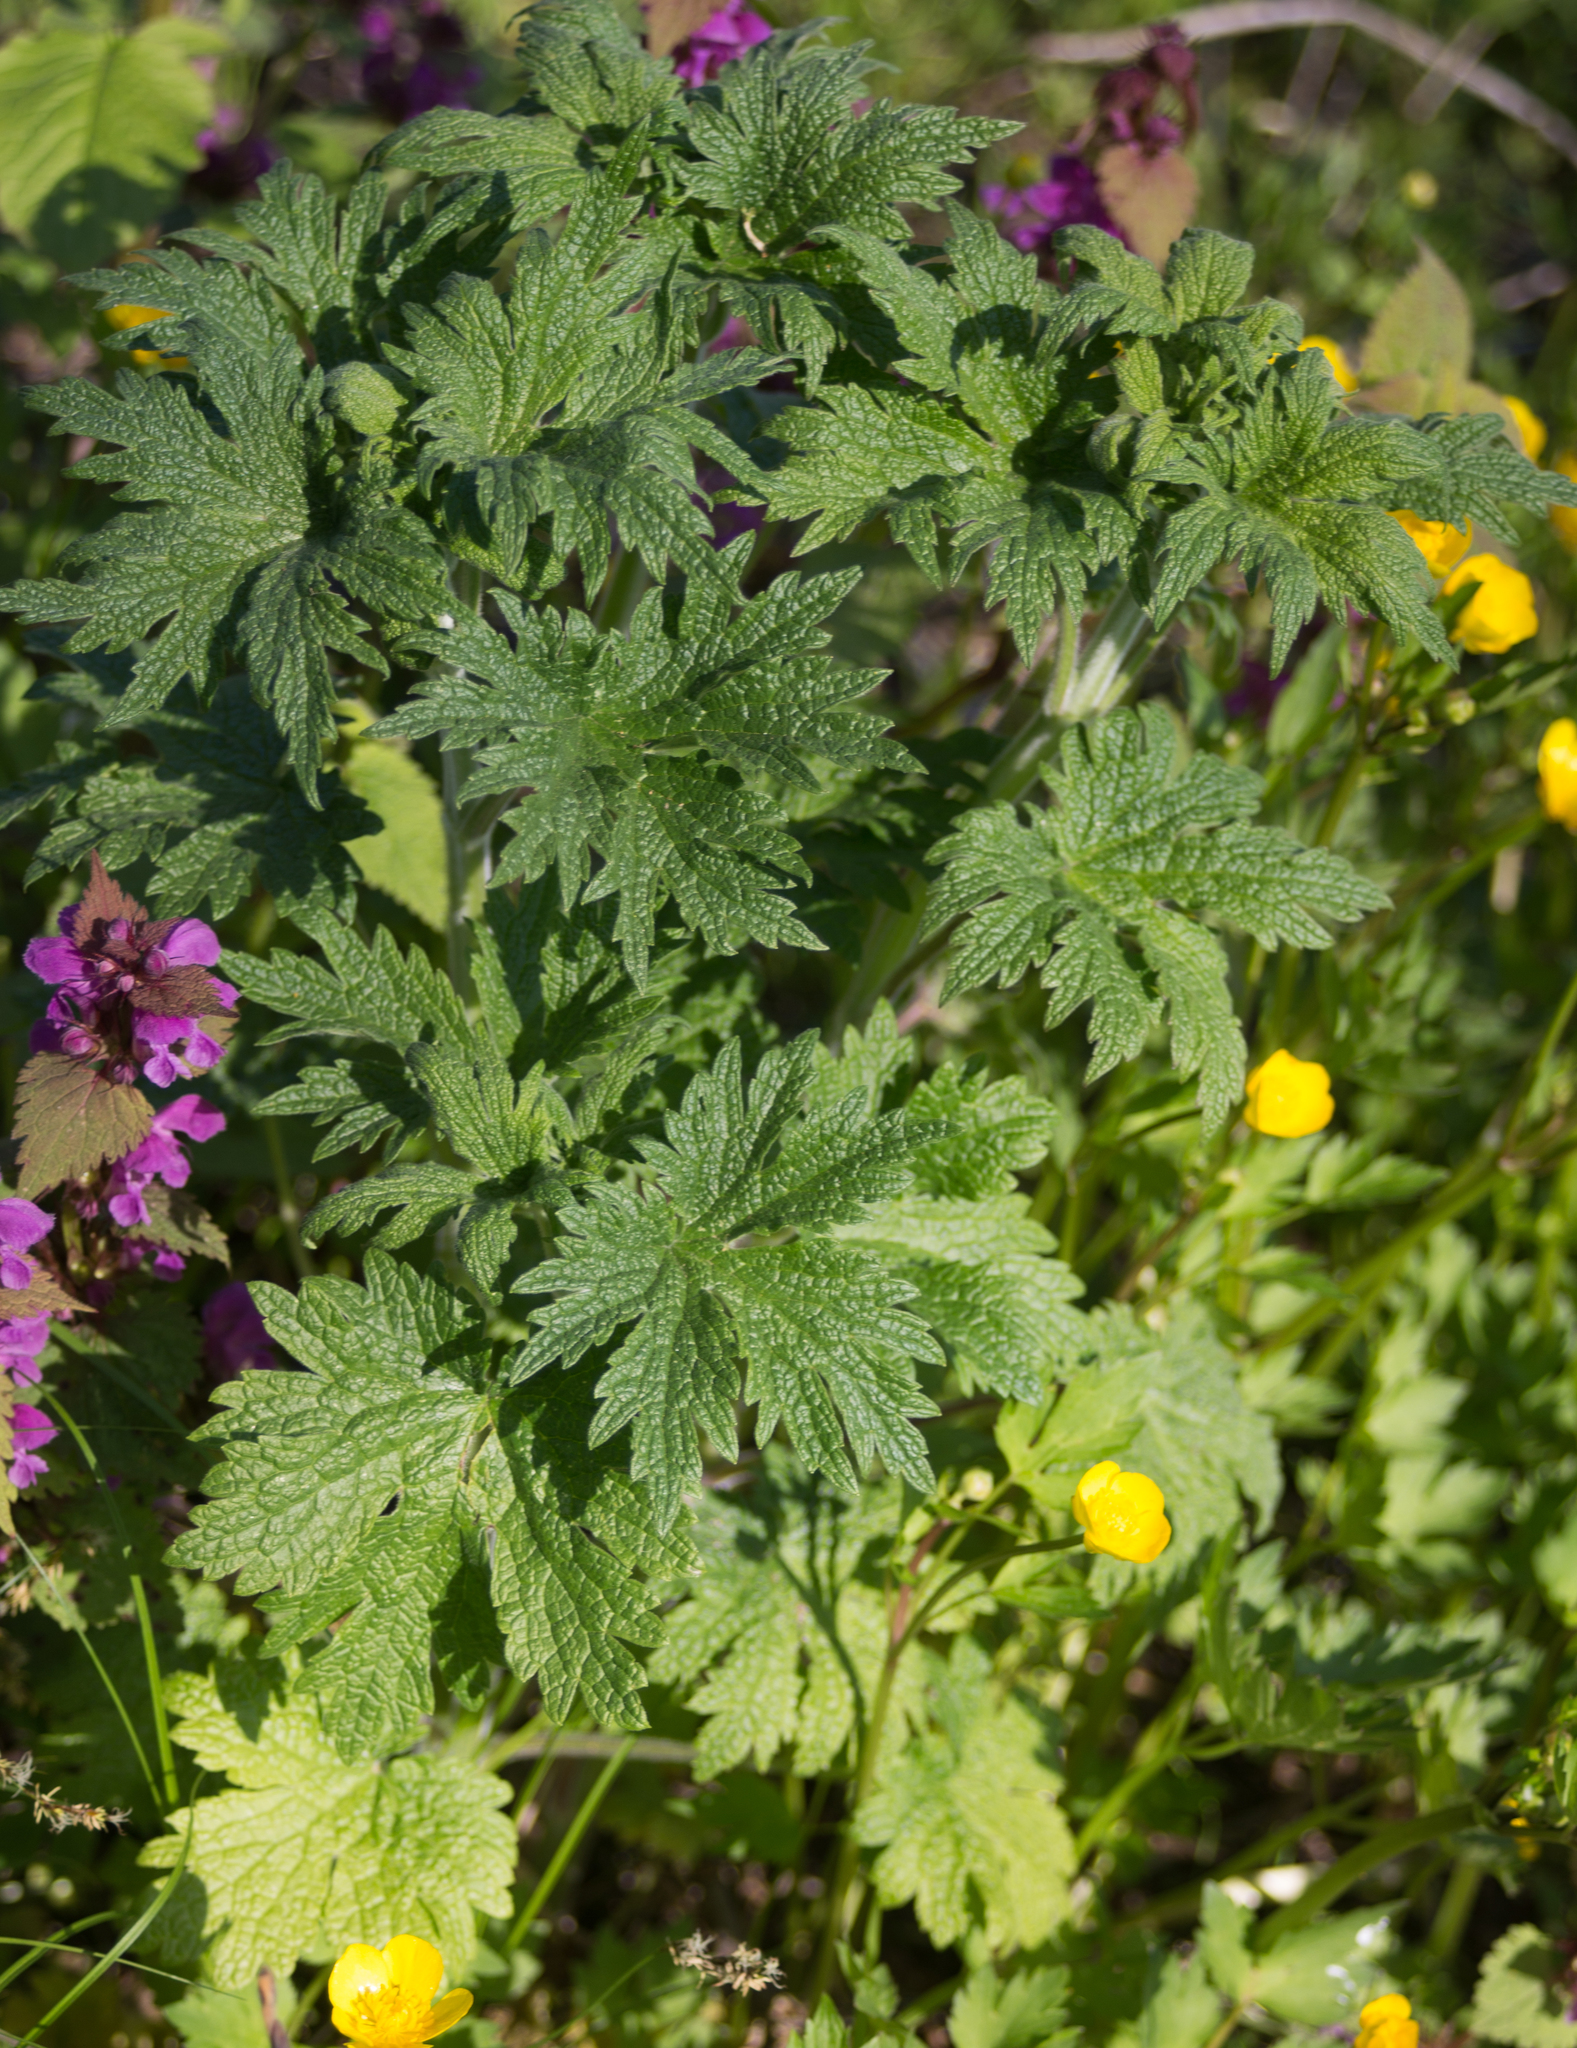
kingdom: Plantae
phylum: Tracheophyta
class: Magnoliopsida
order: Lamiales
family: Lamiaceae
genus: Leonurus
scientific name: Leonurus quinquelobatus
